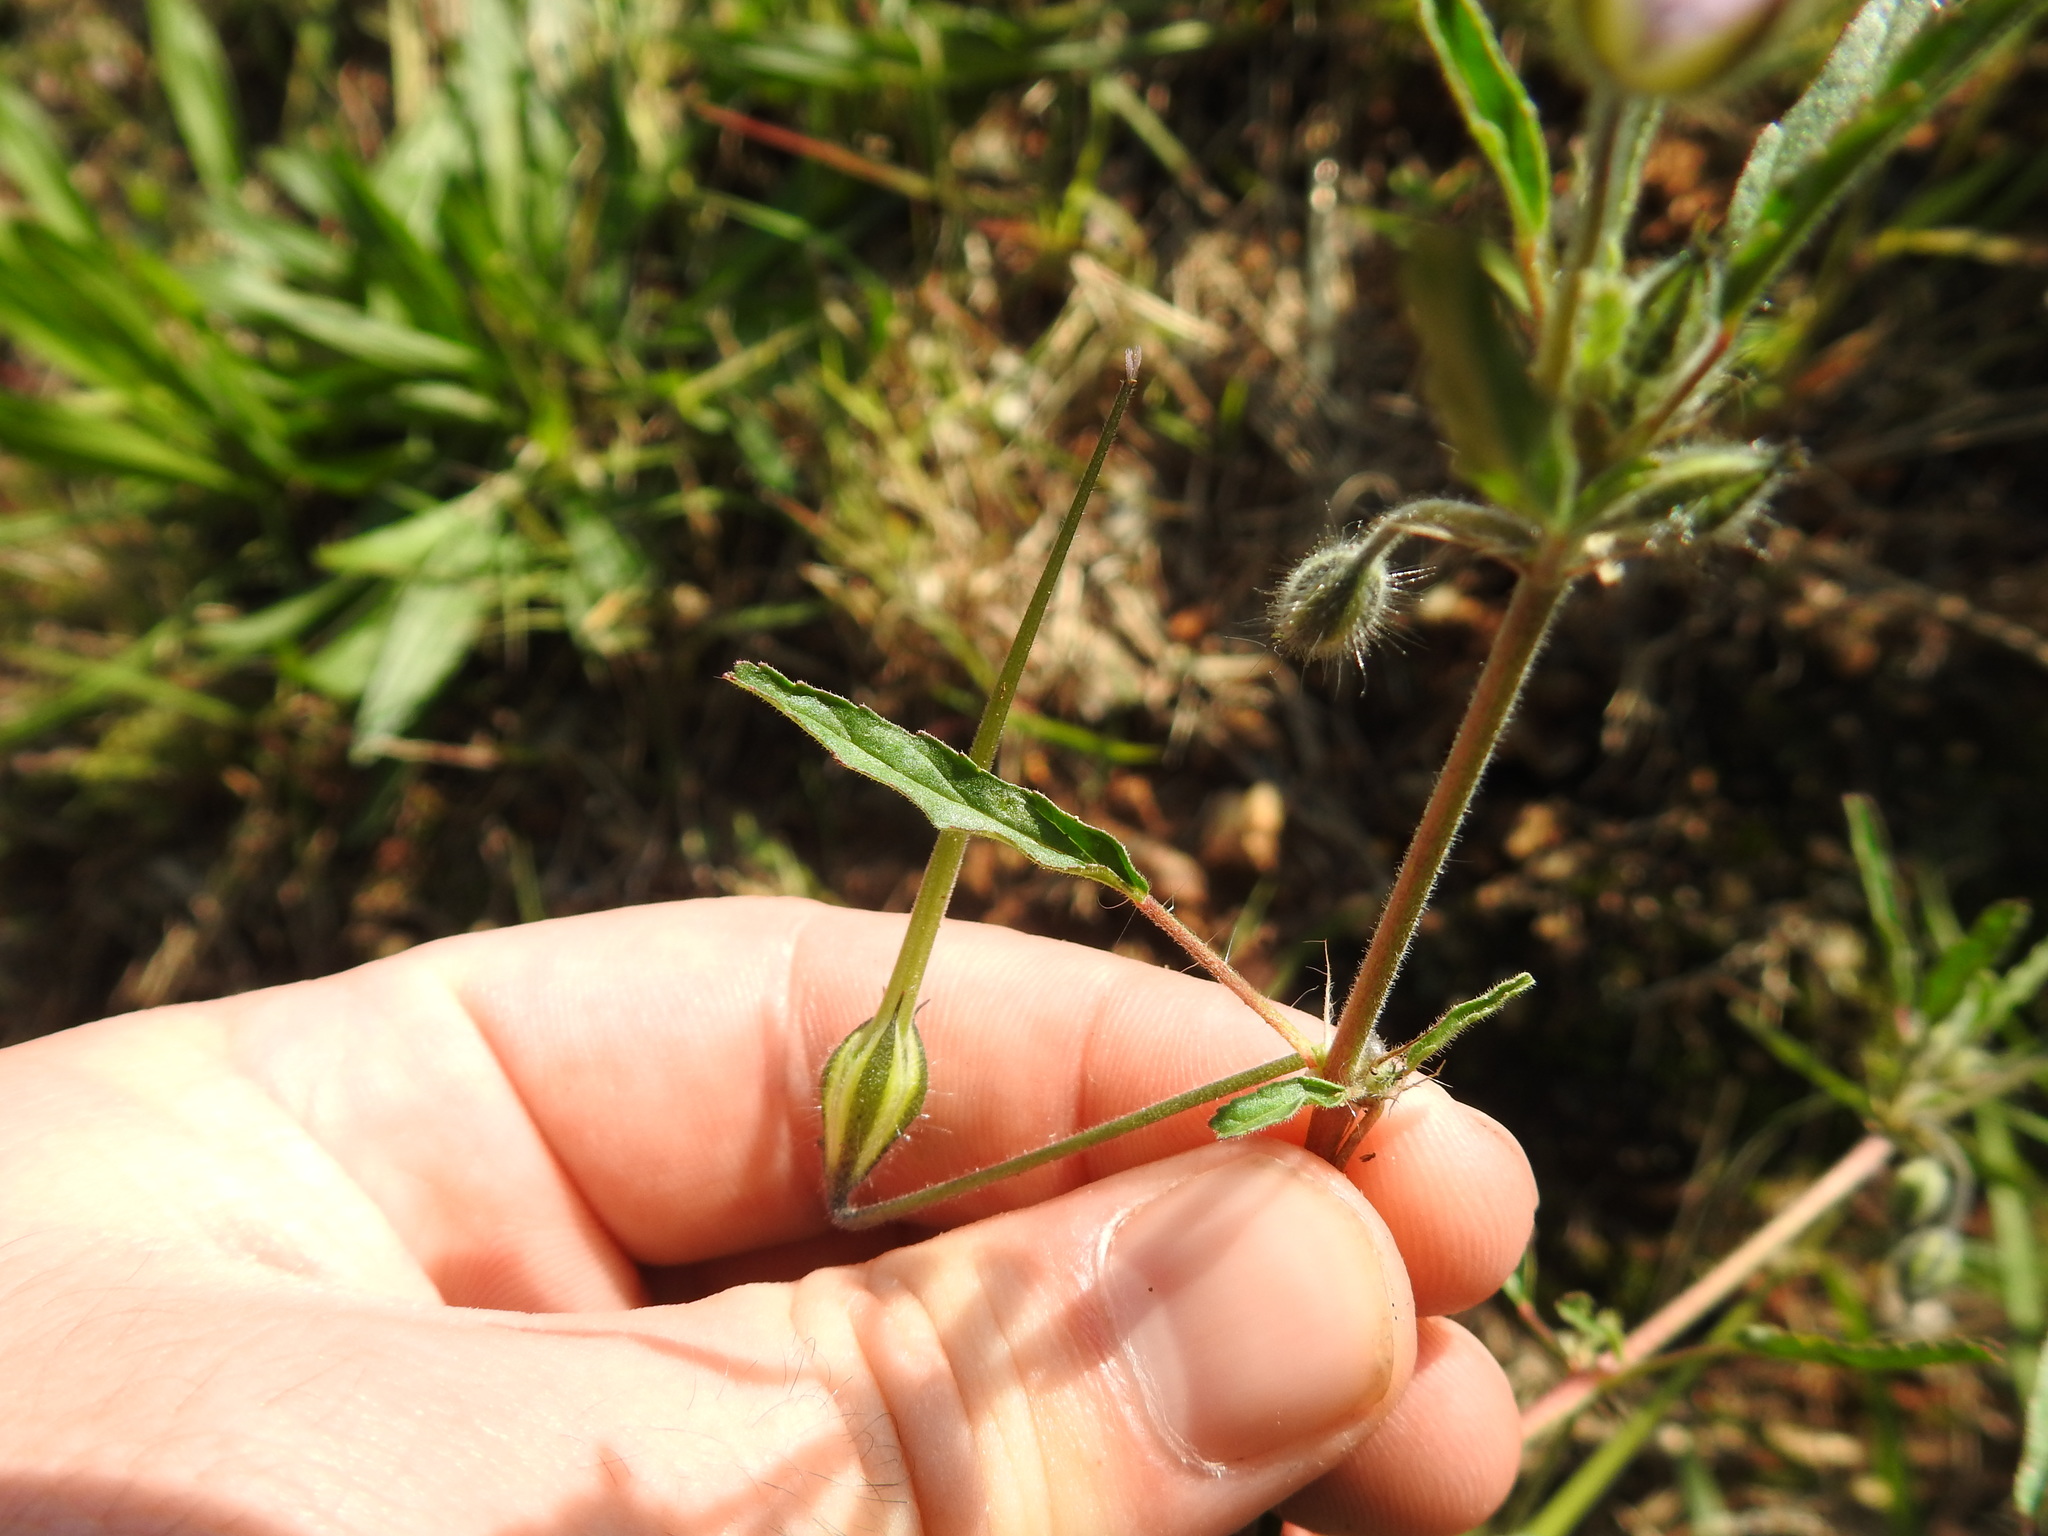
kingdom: Plantae
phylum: Tracheophyta
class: Magnoliopsida
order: Geraniales
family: Geraniaceae
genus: Monsonia
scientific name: Monsonia angustifolia
